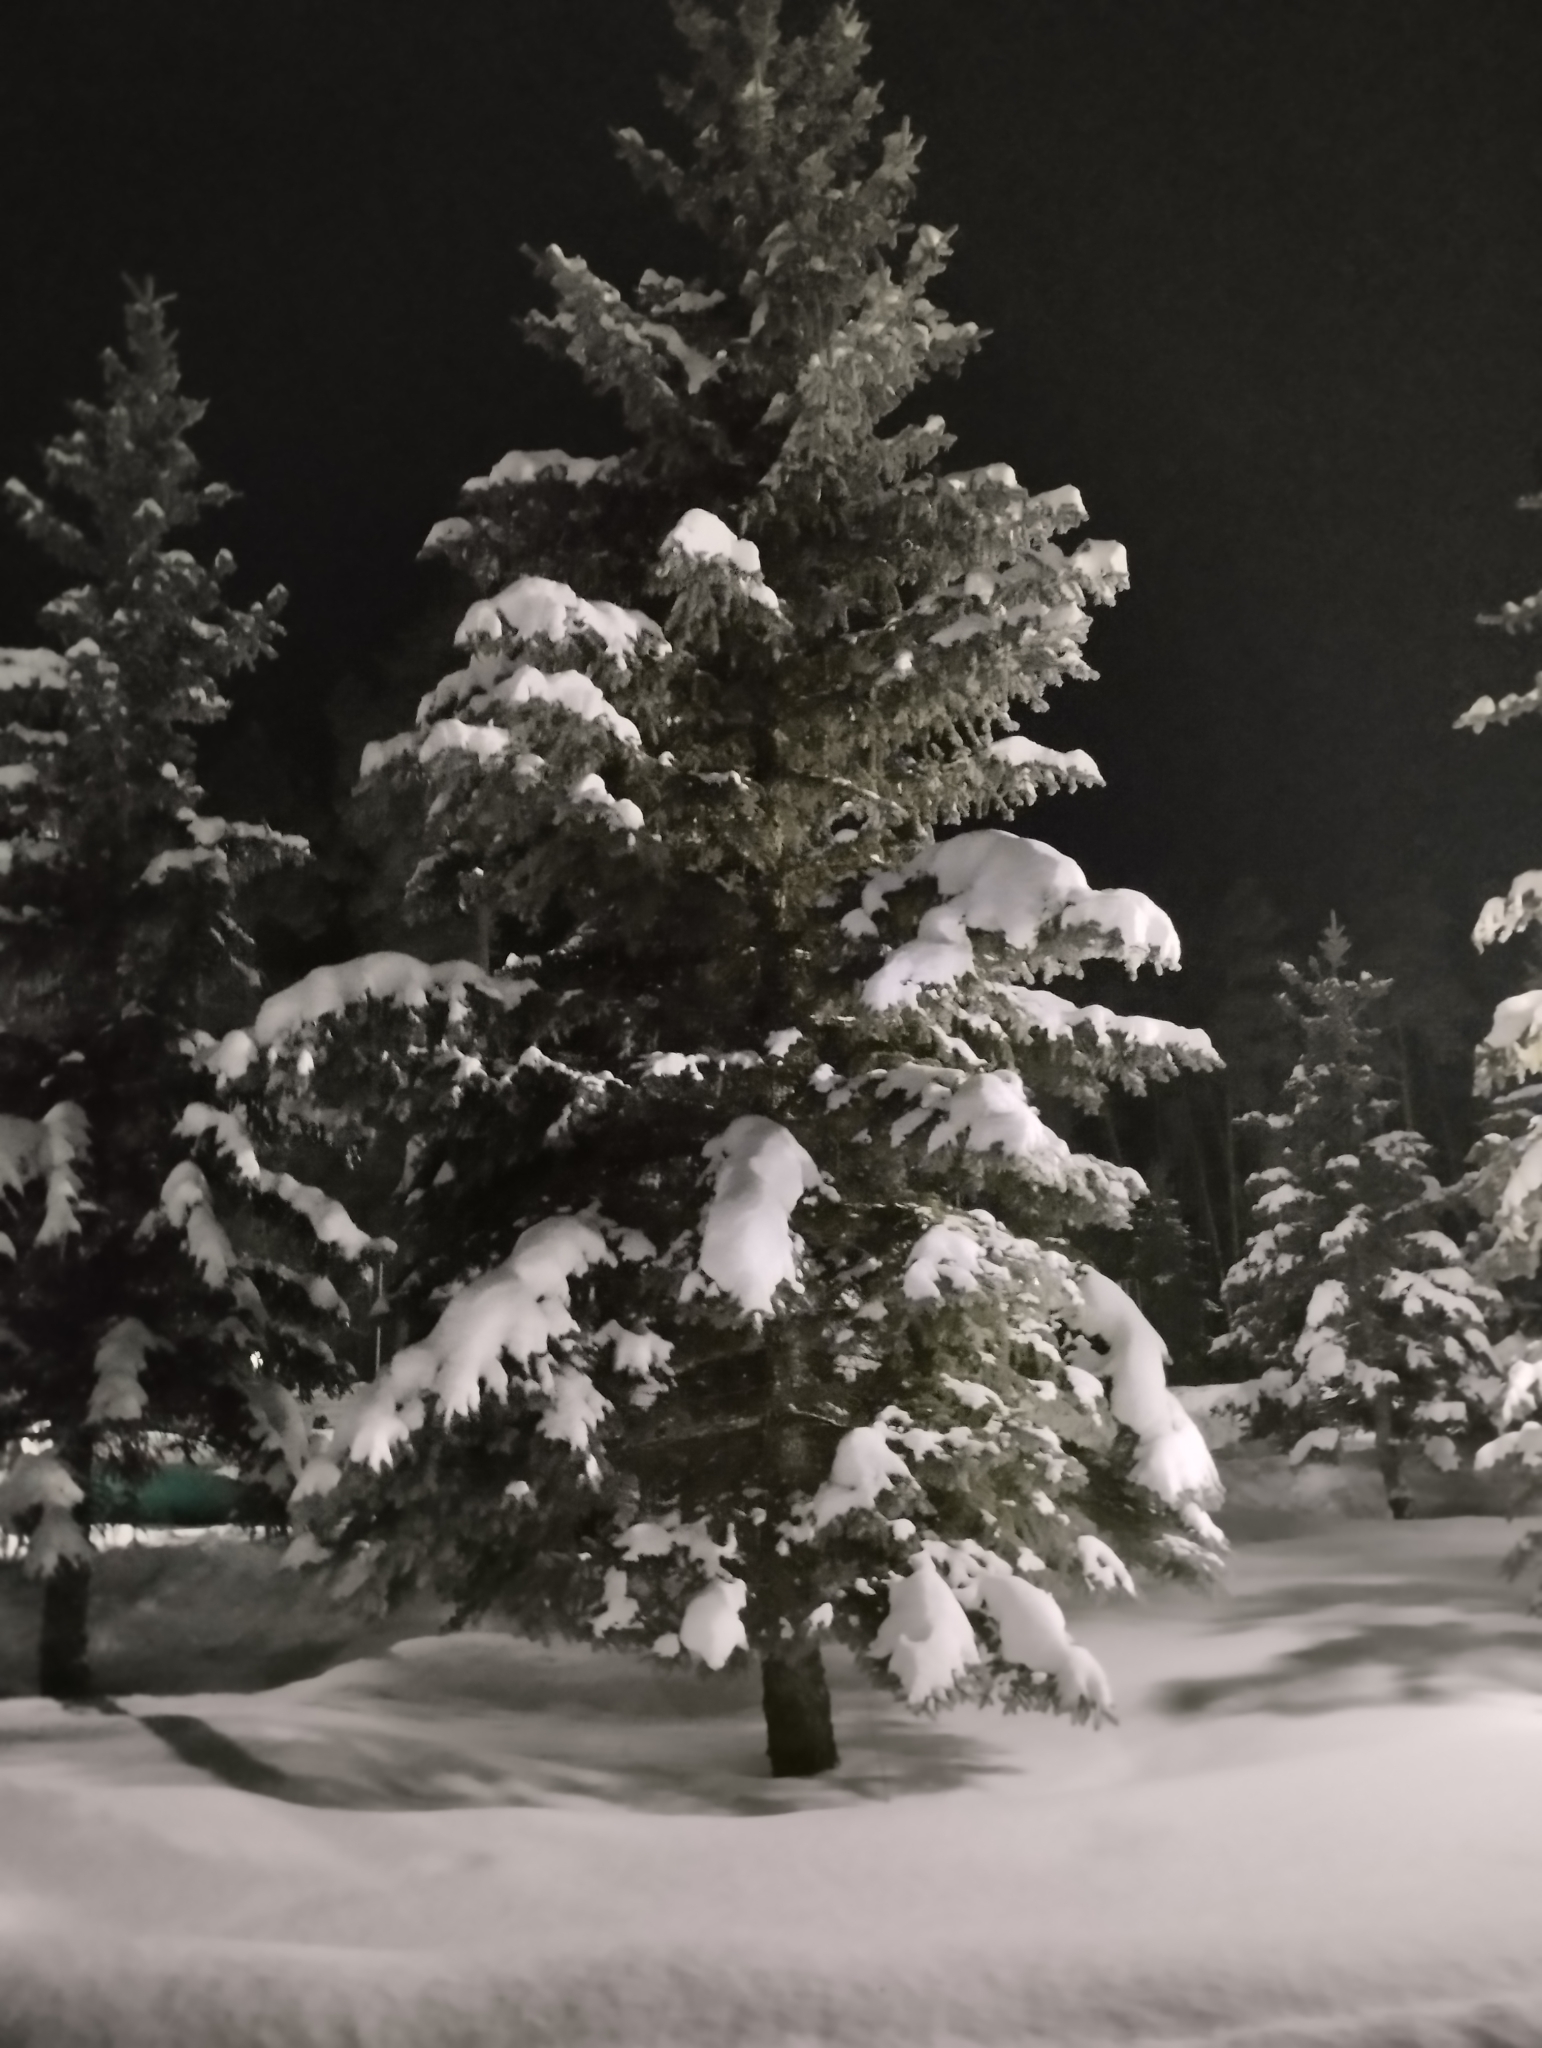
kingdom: Plantae
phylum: Tracheophyta
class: Pinopsida
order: Pinales
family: Pinaceae
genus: Picea
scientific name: Picea abies
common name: Norway spruce
